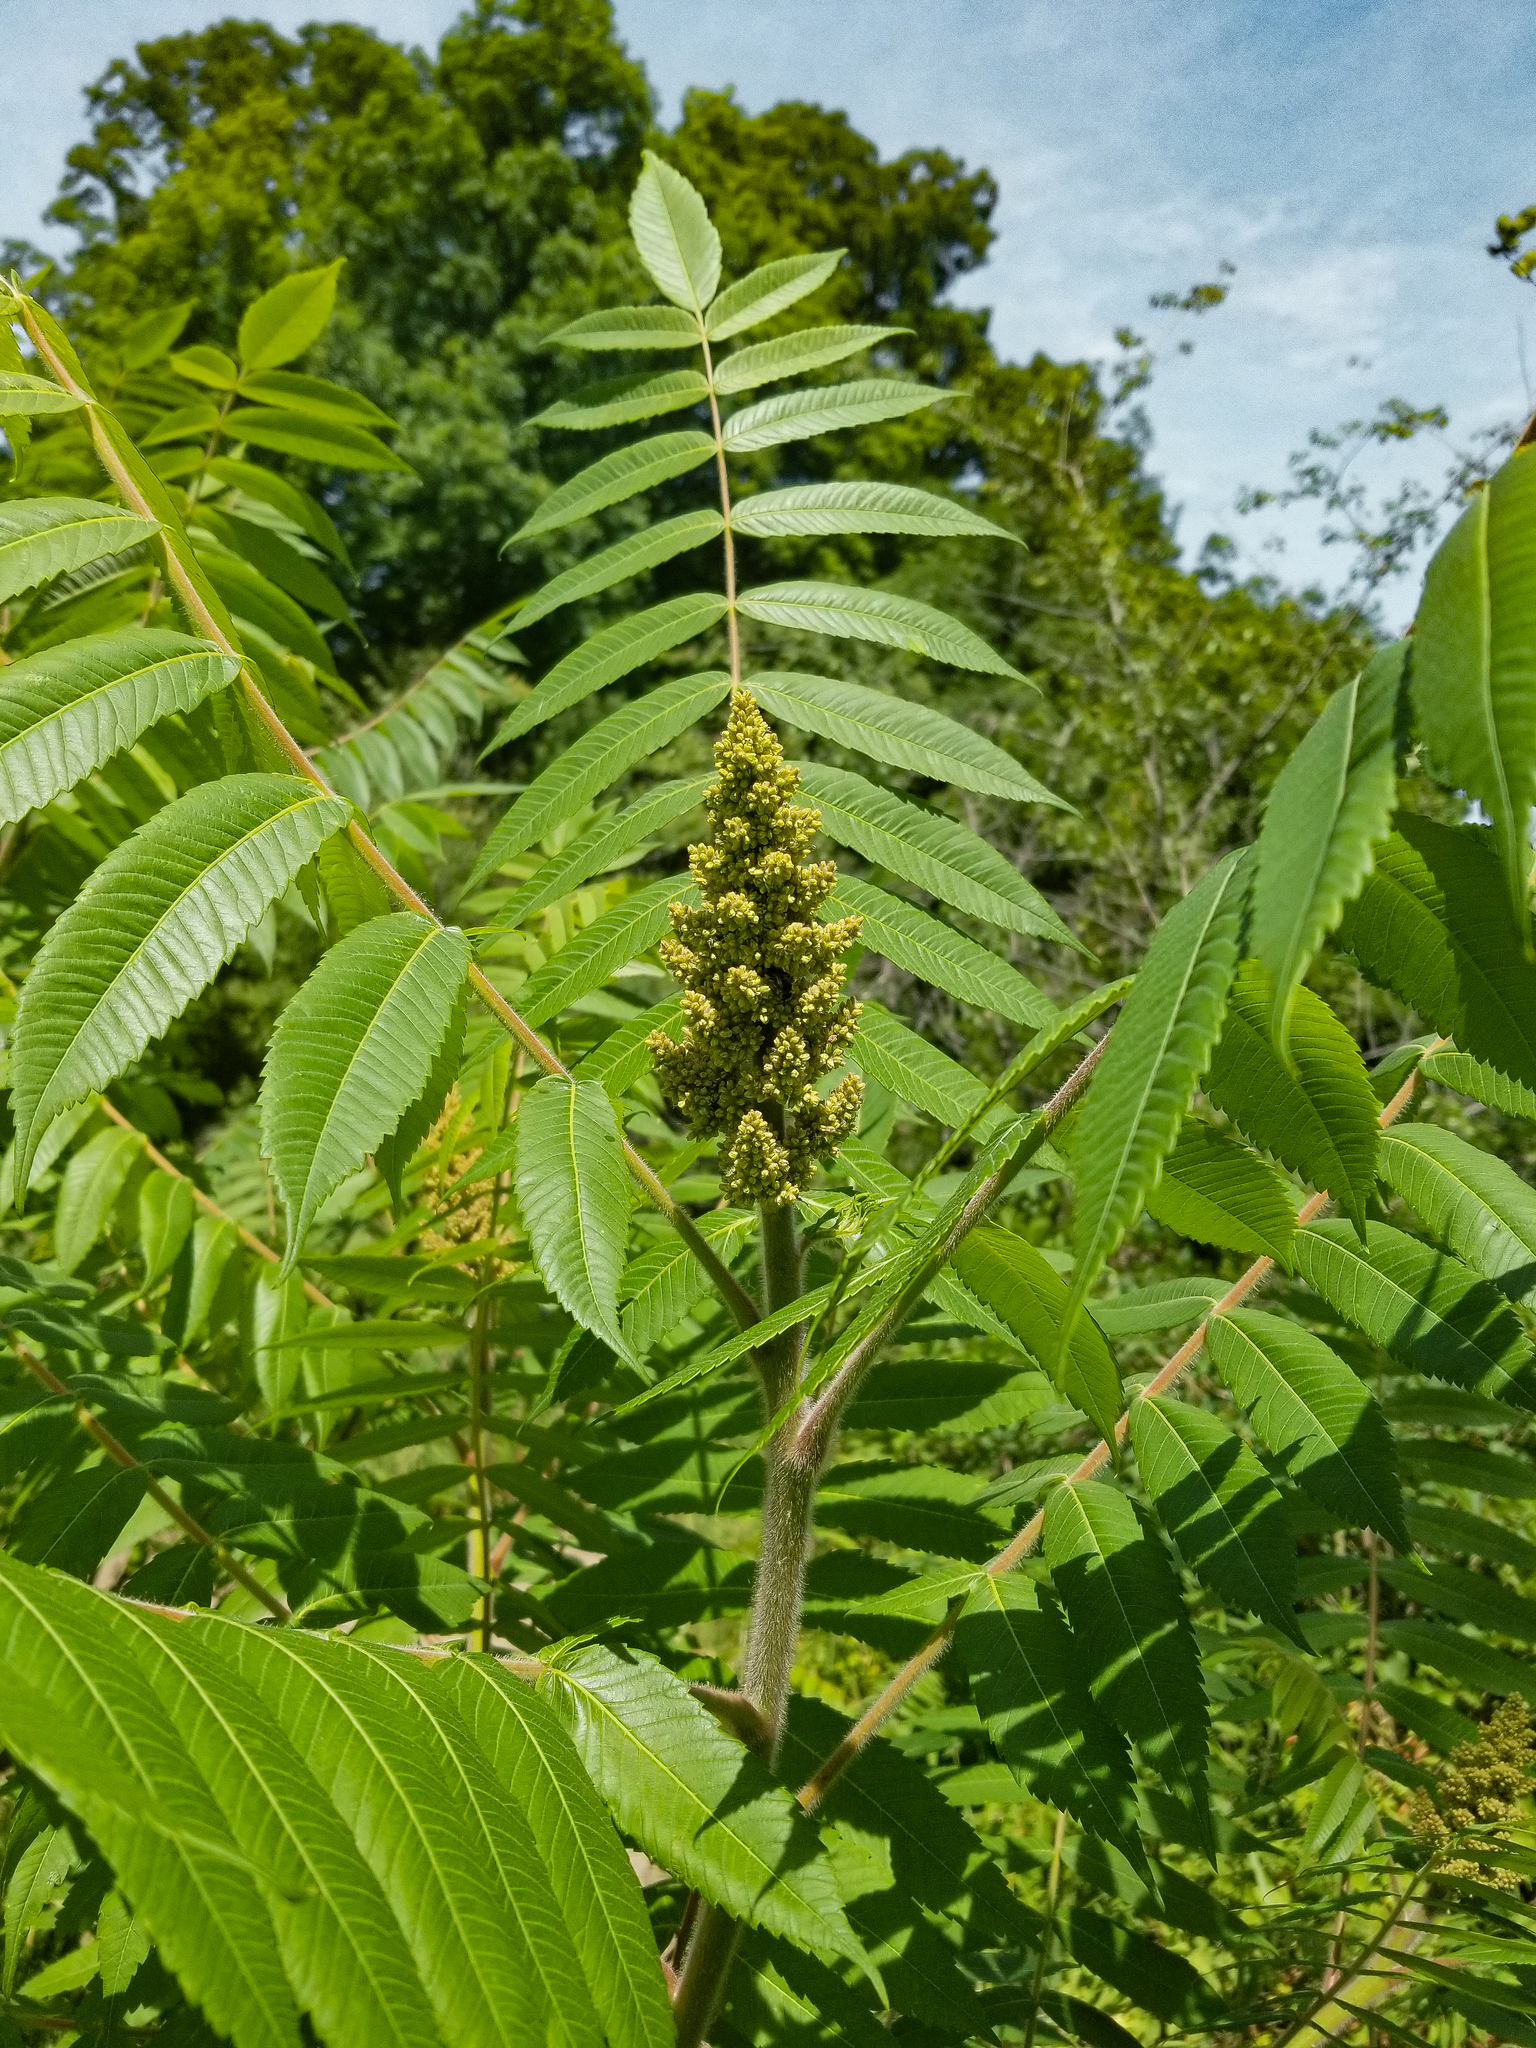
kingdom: Plantae
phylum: Tracheophyta
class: Magnoliopsida
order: Sapindales
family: Anacardiaceae
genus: Rhus
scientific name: Rhus typhina
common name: Staghorn sumac
